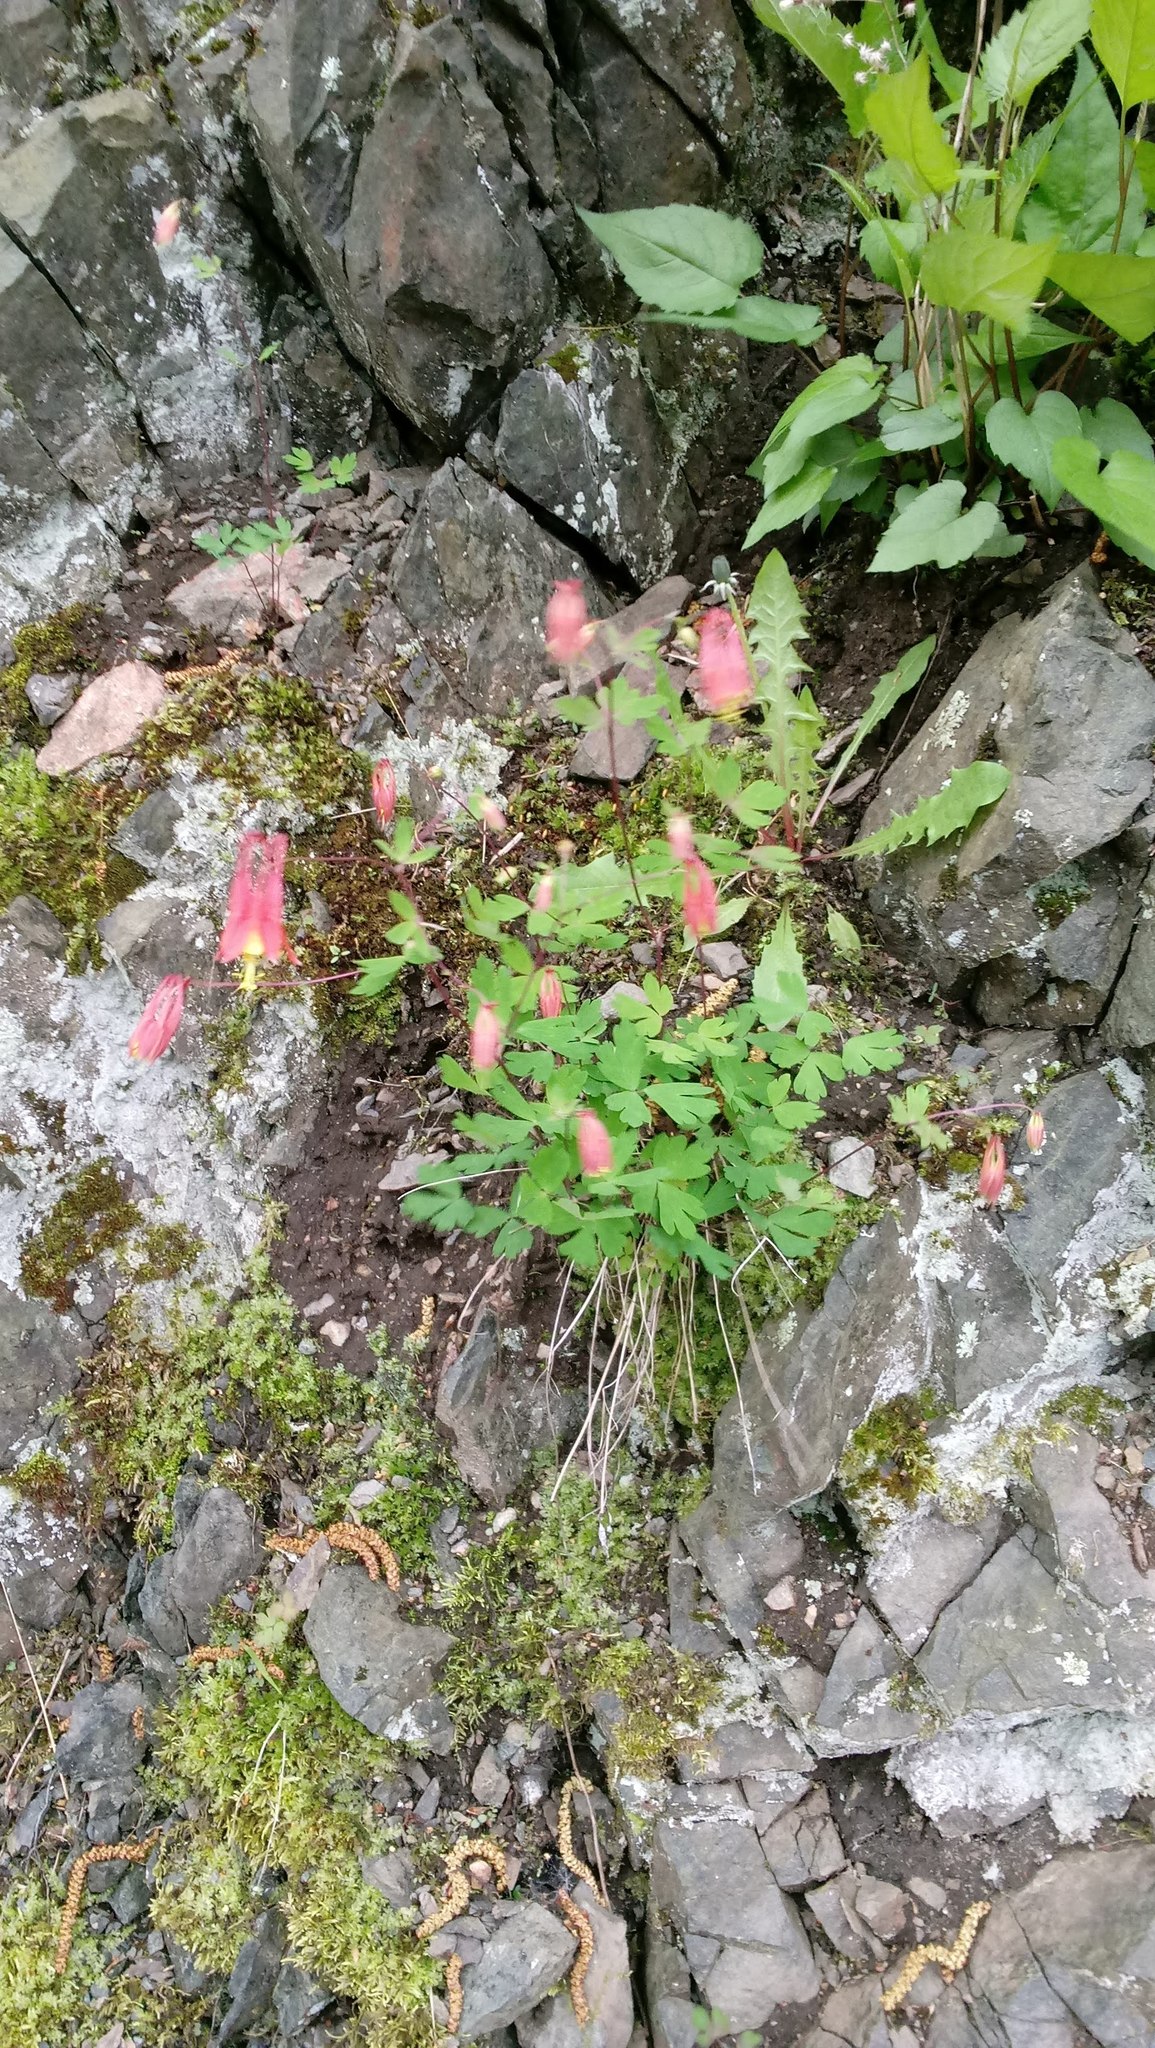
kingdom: Plantae
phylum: Tracheophyta
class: Magnoliopsida
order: Ranunculales
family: Ranunculaceae
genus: Aquilegia
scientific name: Aquilegia canadensis
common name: American columbine
